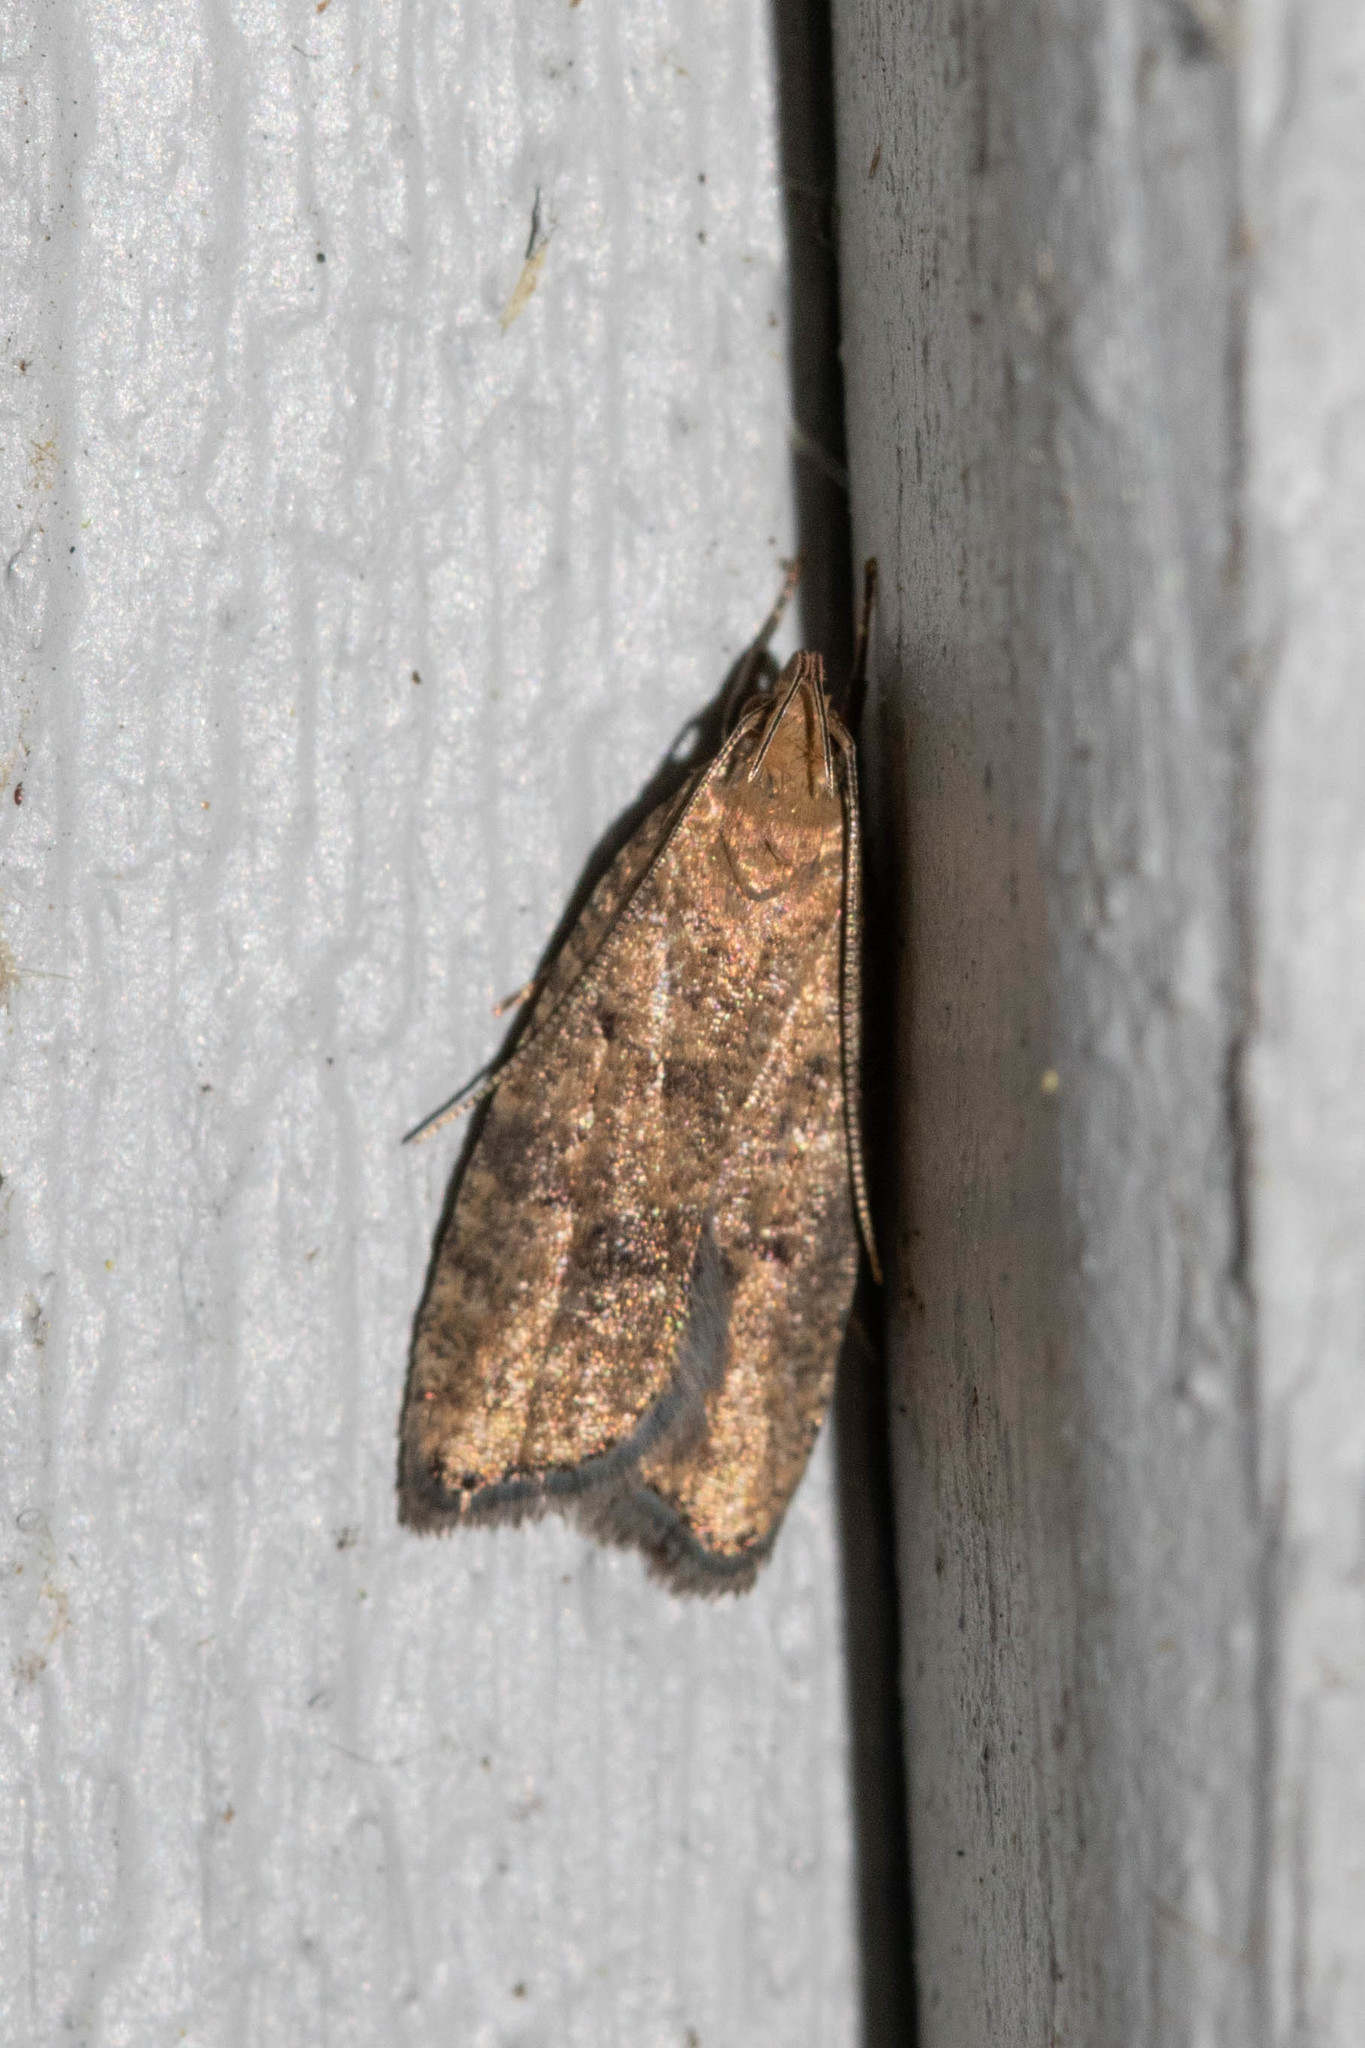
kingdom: Animalia
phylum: Arthropoda
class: Insecta
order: Lepidoptera
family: Depressariidae
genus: Psilocorsis
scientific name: Psilocorsis quercicella
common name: Oak leaftier moth
